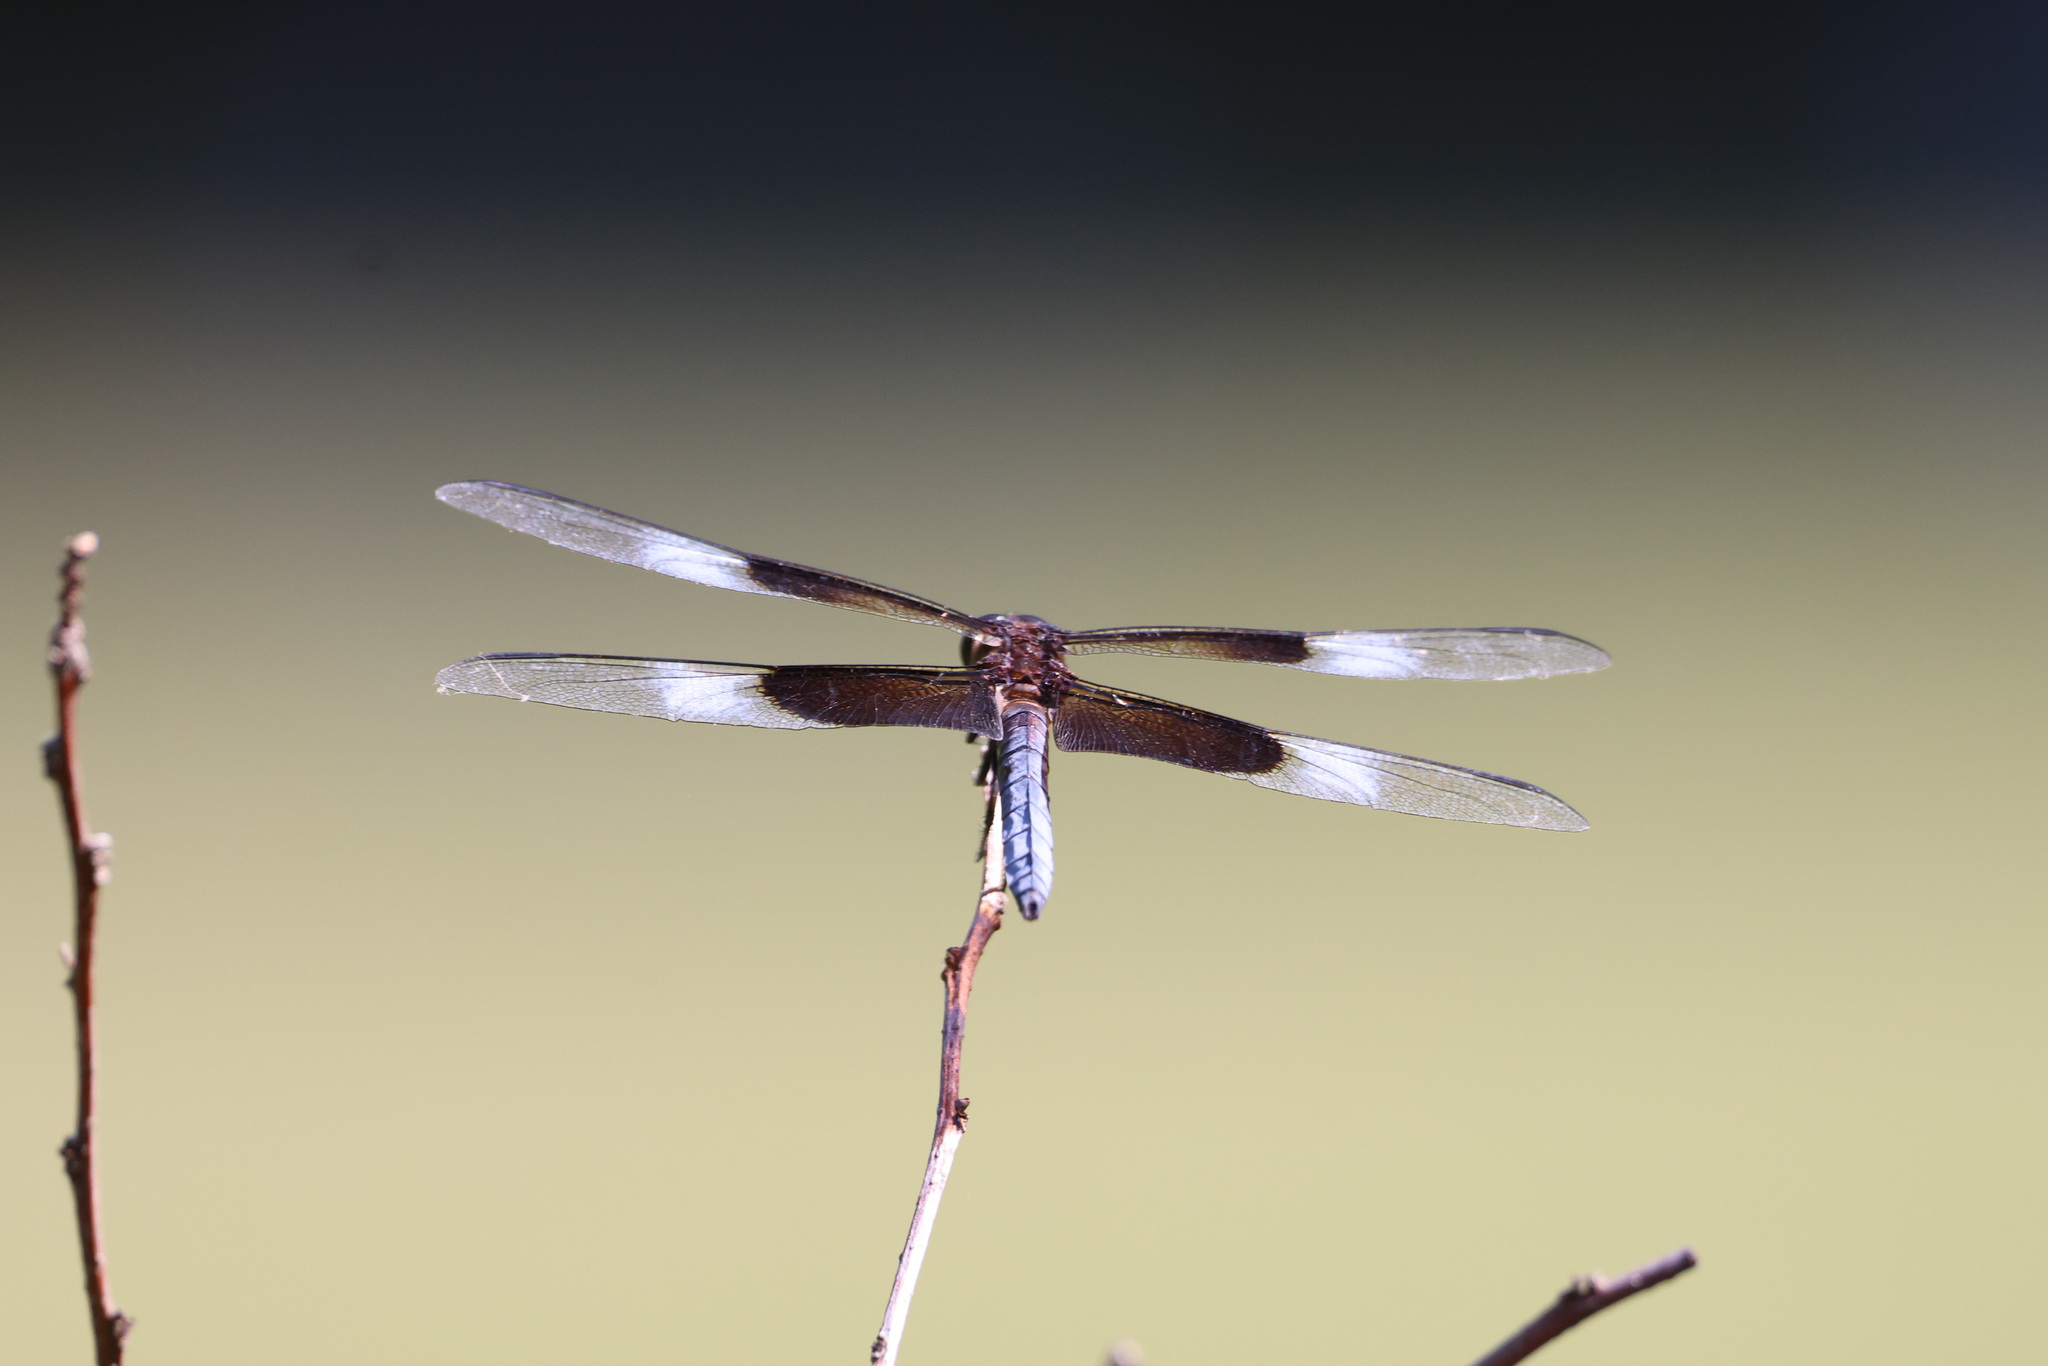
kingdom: Animalia
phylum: Arthropoda
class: Insecta
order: Odonata
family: Libellulidae
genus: Libellula
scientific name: Libellula luctuosa
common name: Widow skimmer
